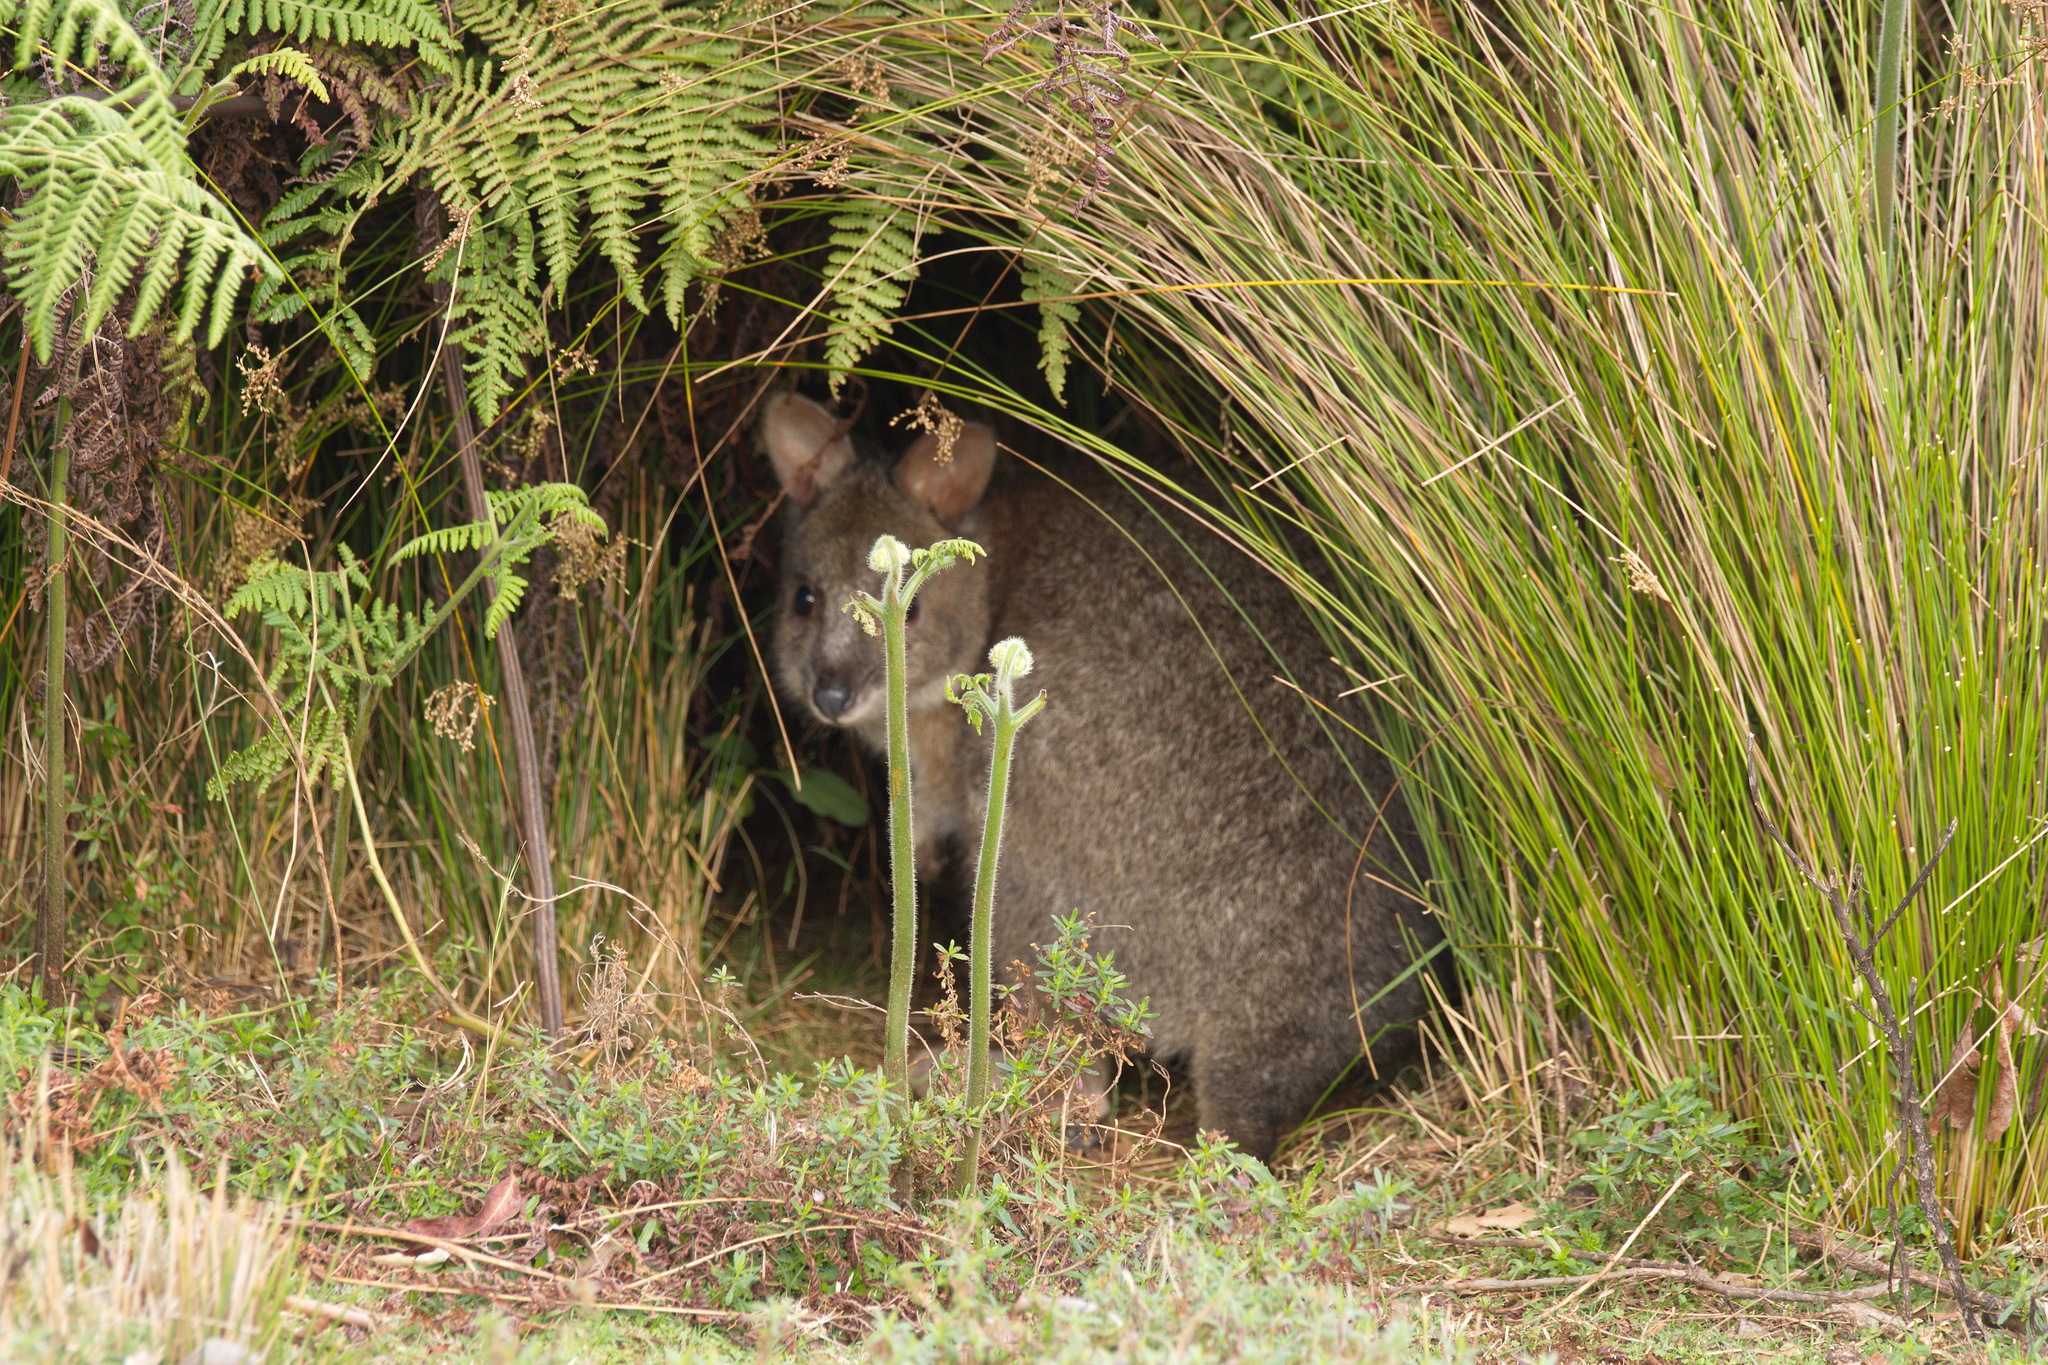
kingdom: Animalia
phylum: Chordata
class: Mammalia
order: Diprotodontia
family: Macropodidae
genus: Thylogale
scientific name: Thylogale thetis
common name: Red-necked pademelon
